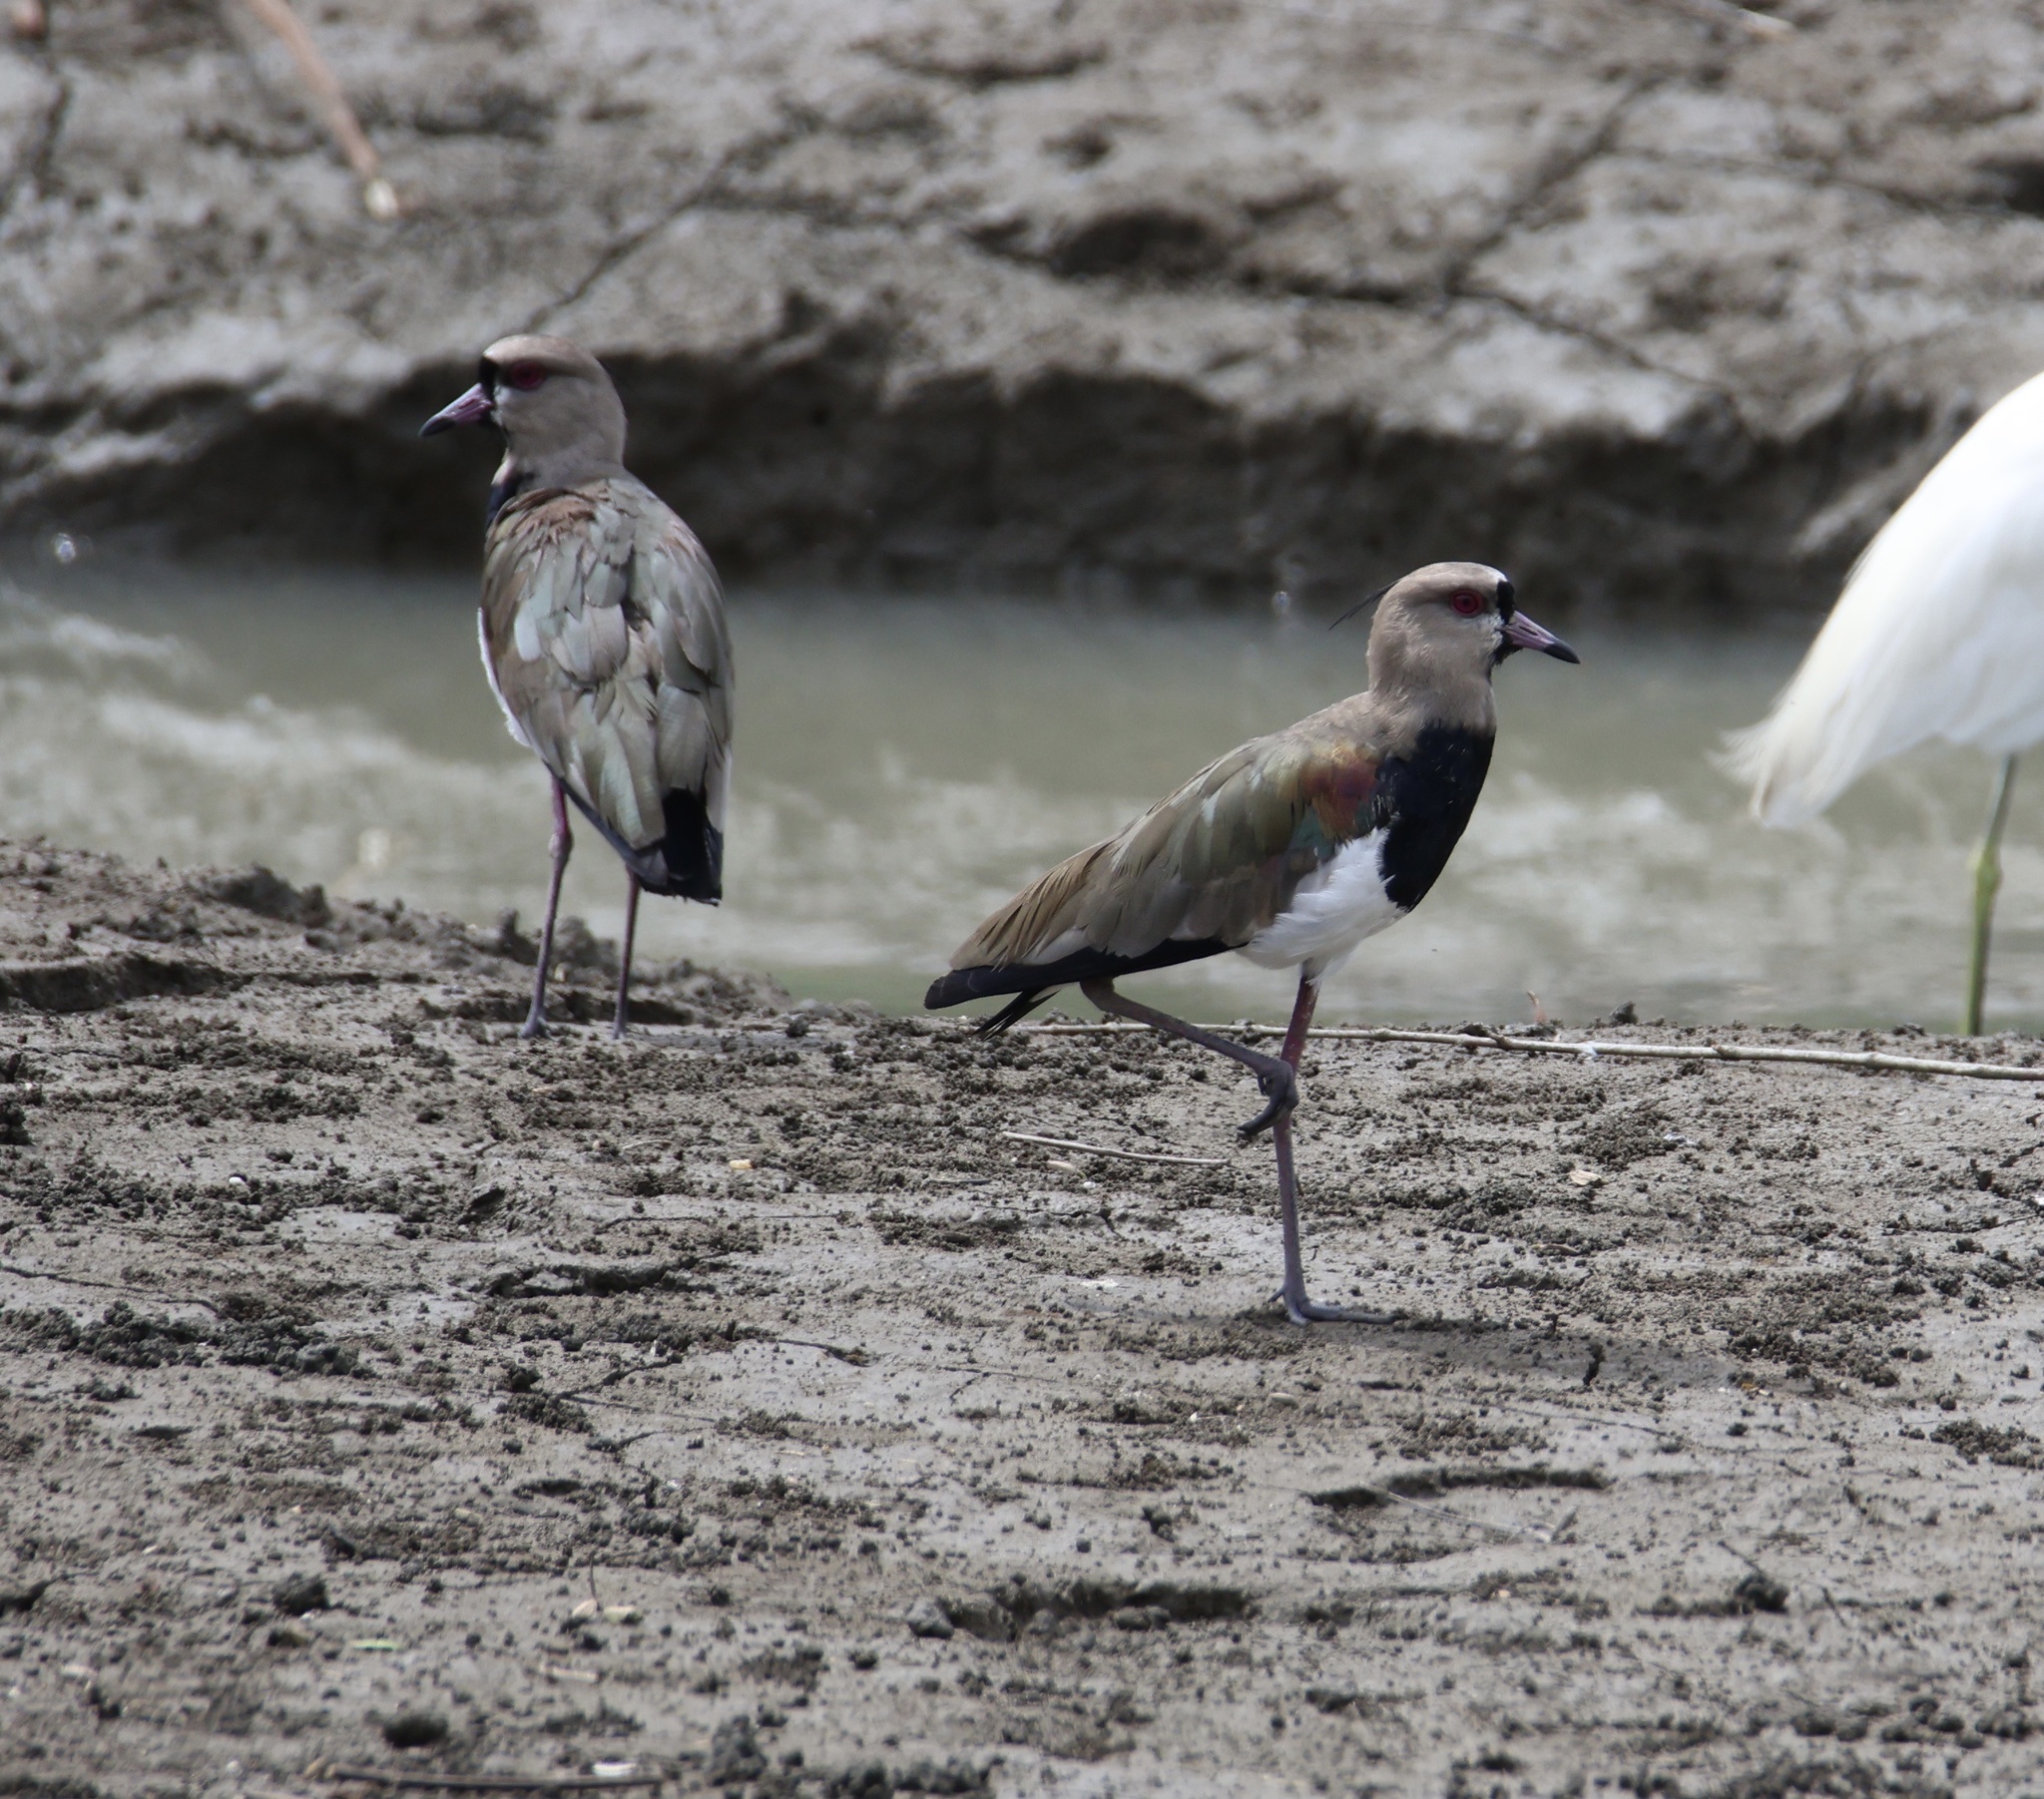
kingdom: Animalia
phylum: Chordata
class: Aves
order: Charadriiformes
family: Charadriidae
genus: Vanellus
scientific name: Vanellus chilensis
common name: Southern lapwing
